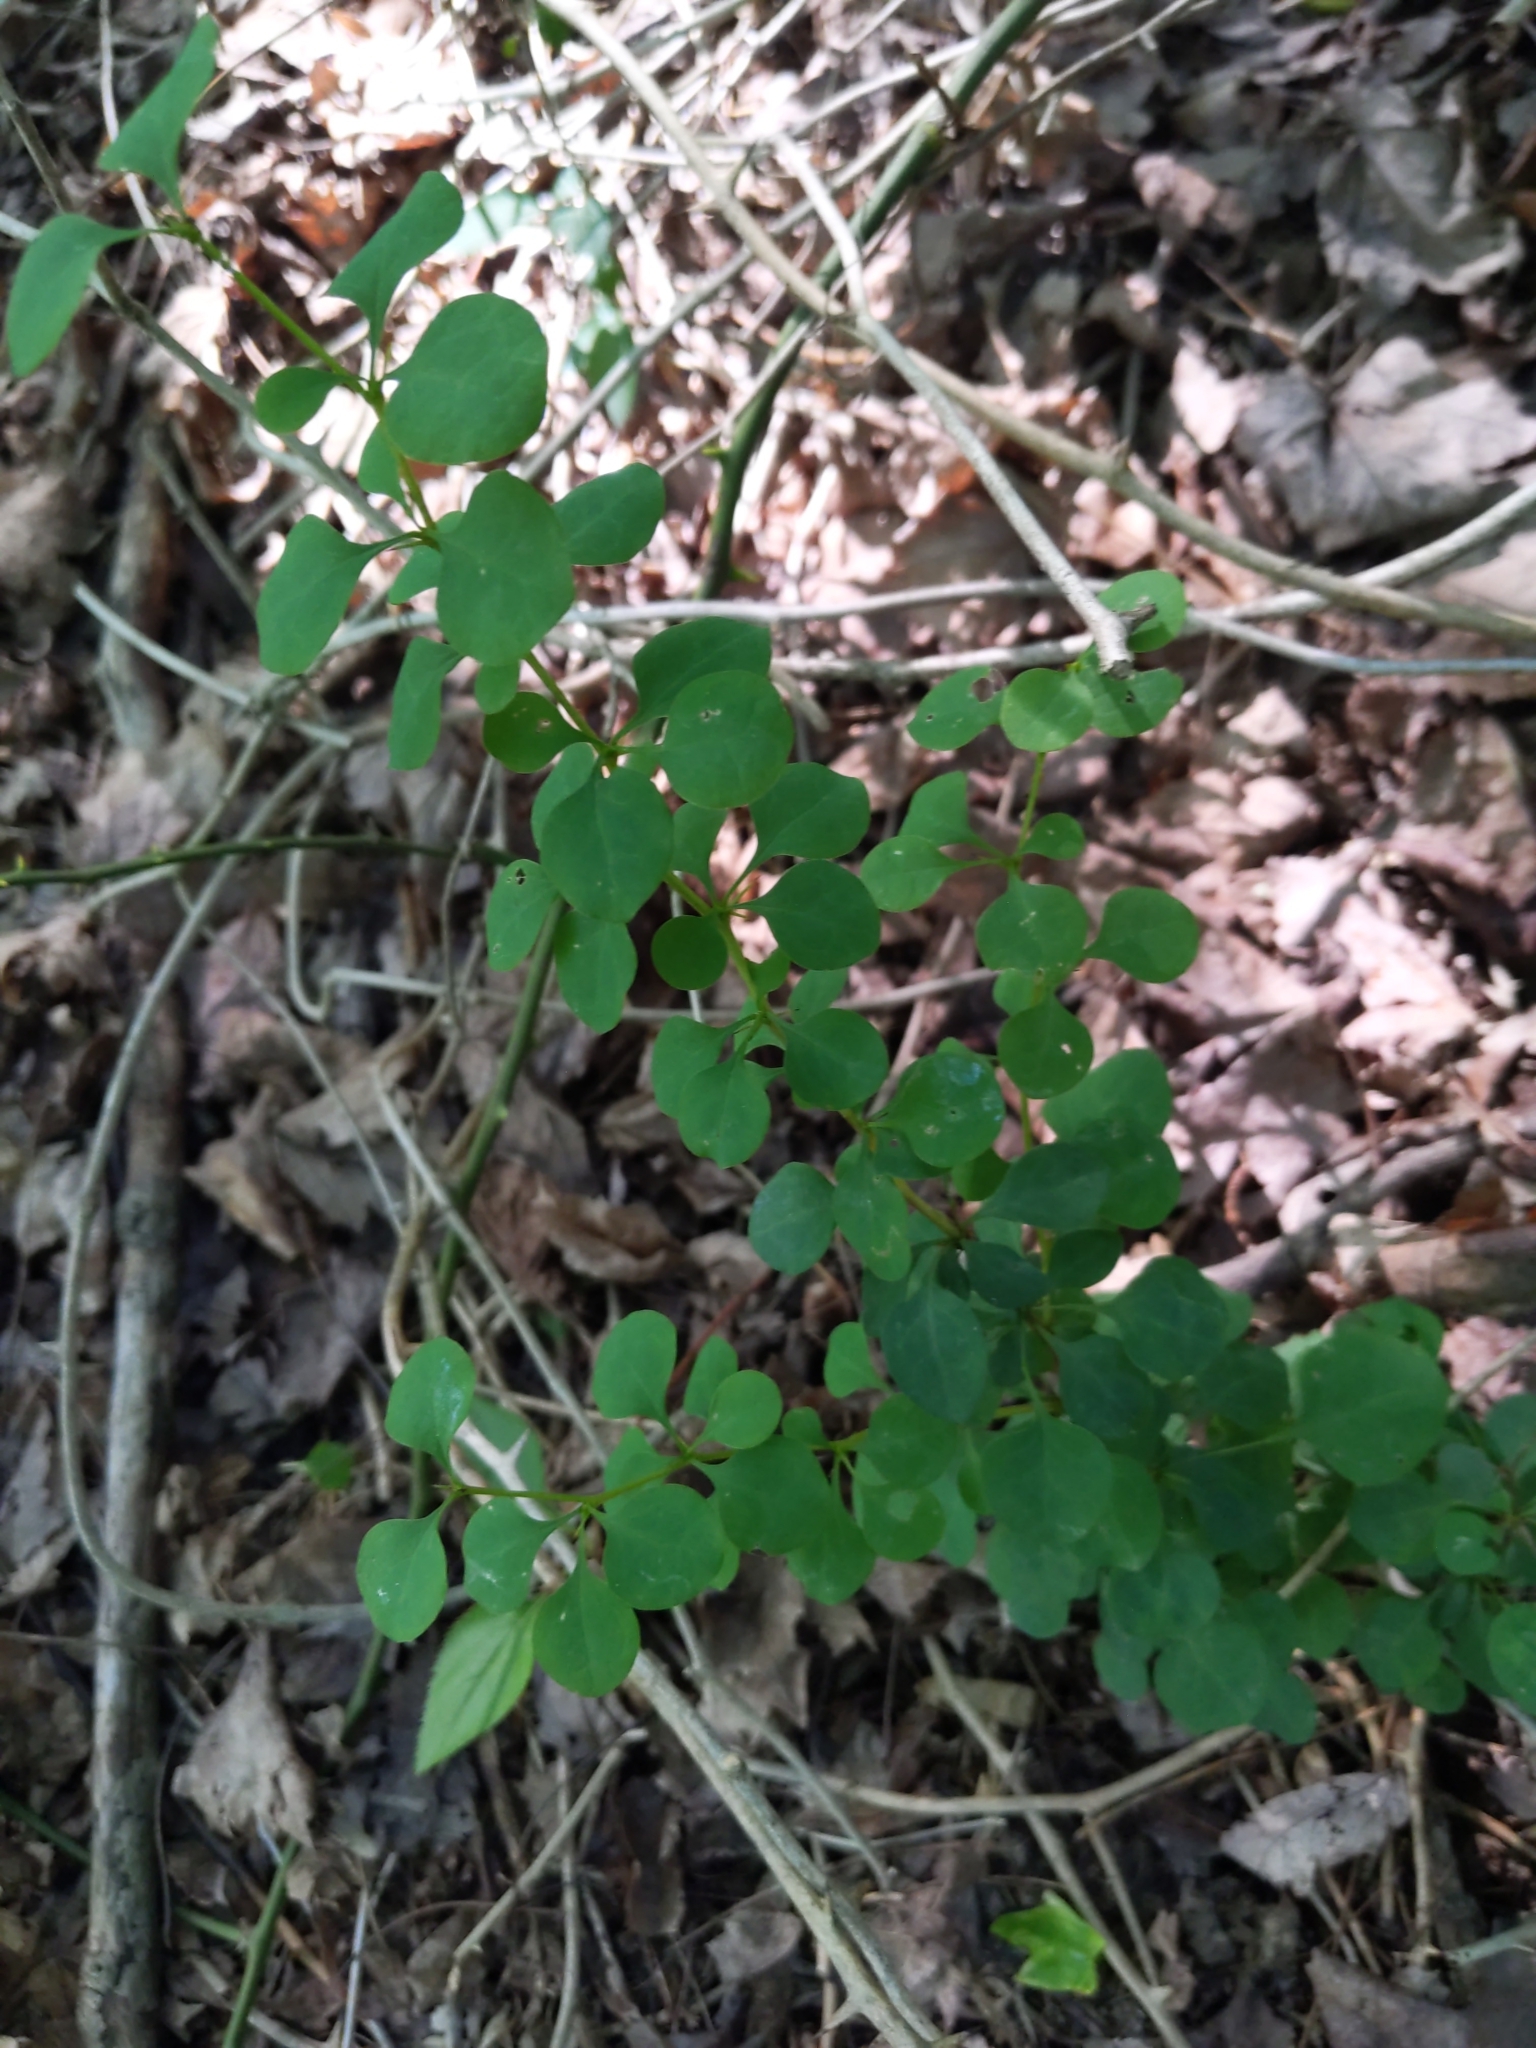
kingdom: Plantae
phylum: Tracheophyta
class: Magnoliopsida
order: Ranunculales
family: Berberidaceae
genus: Berberis
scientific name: Berberis thunbergii
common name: Japanese barberry
